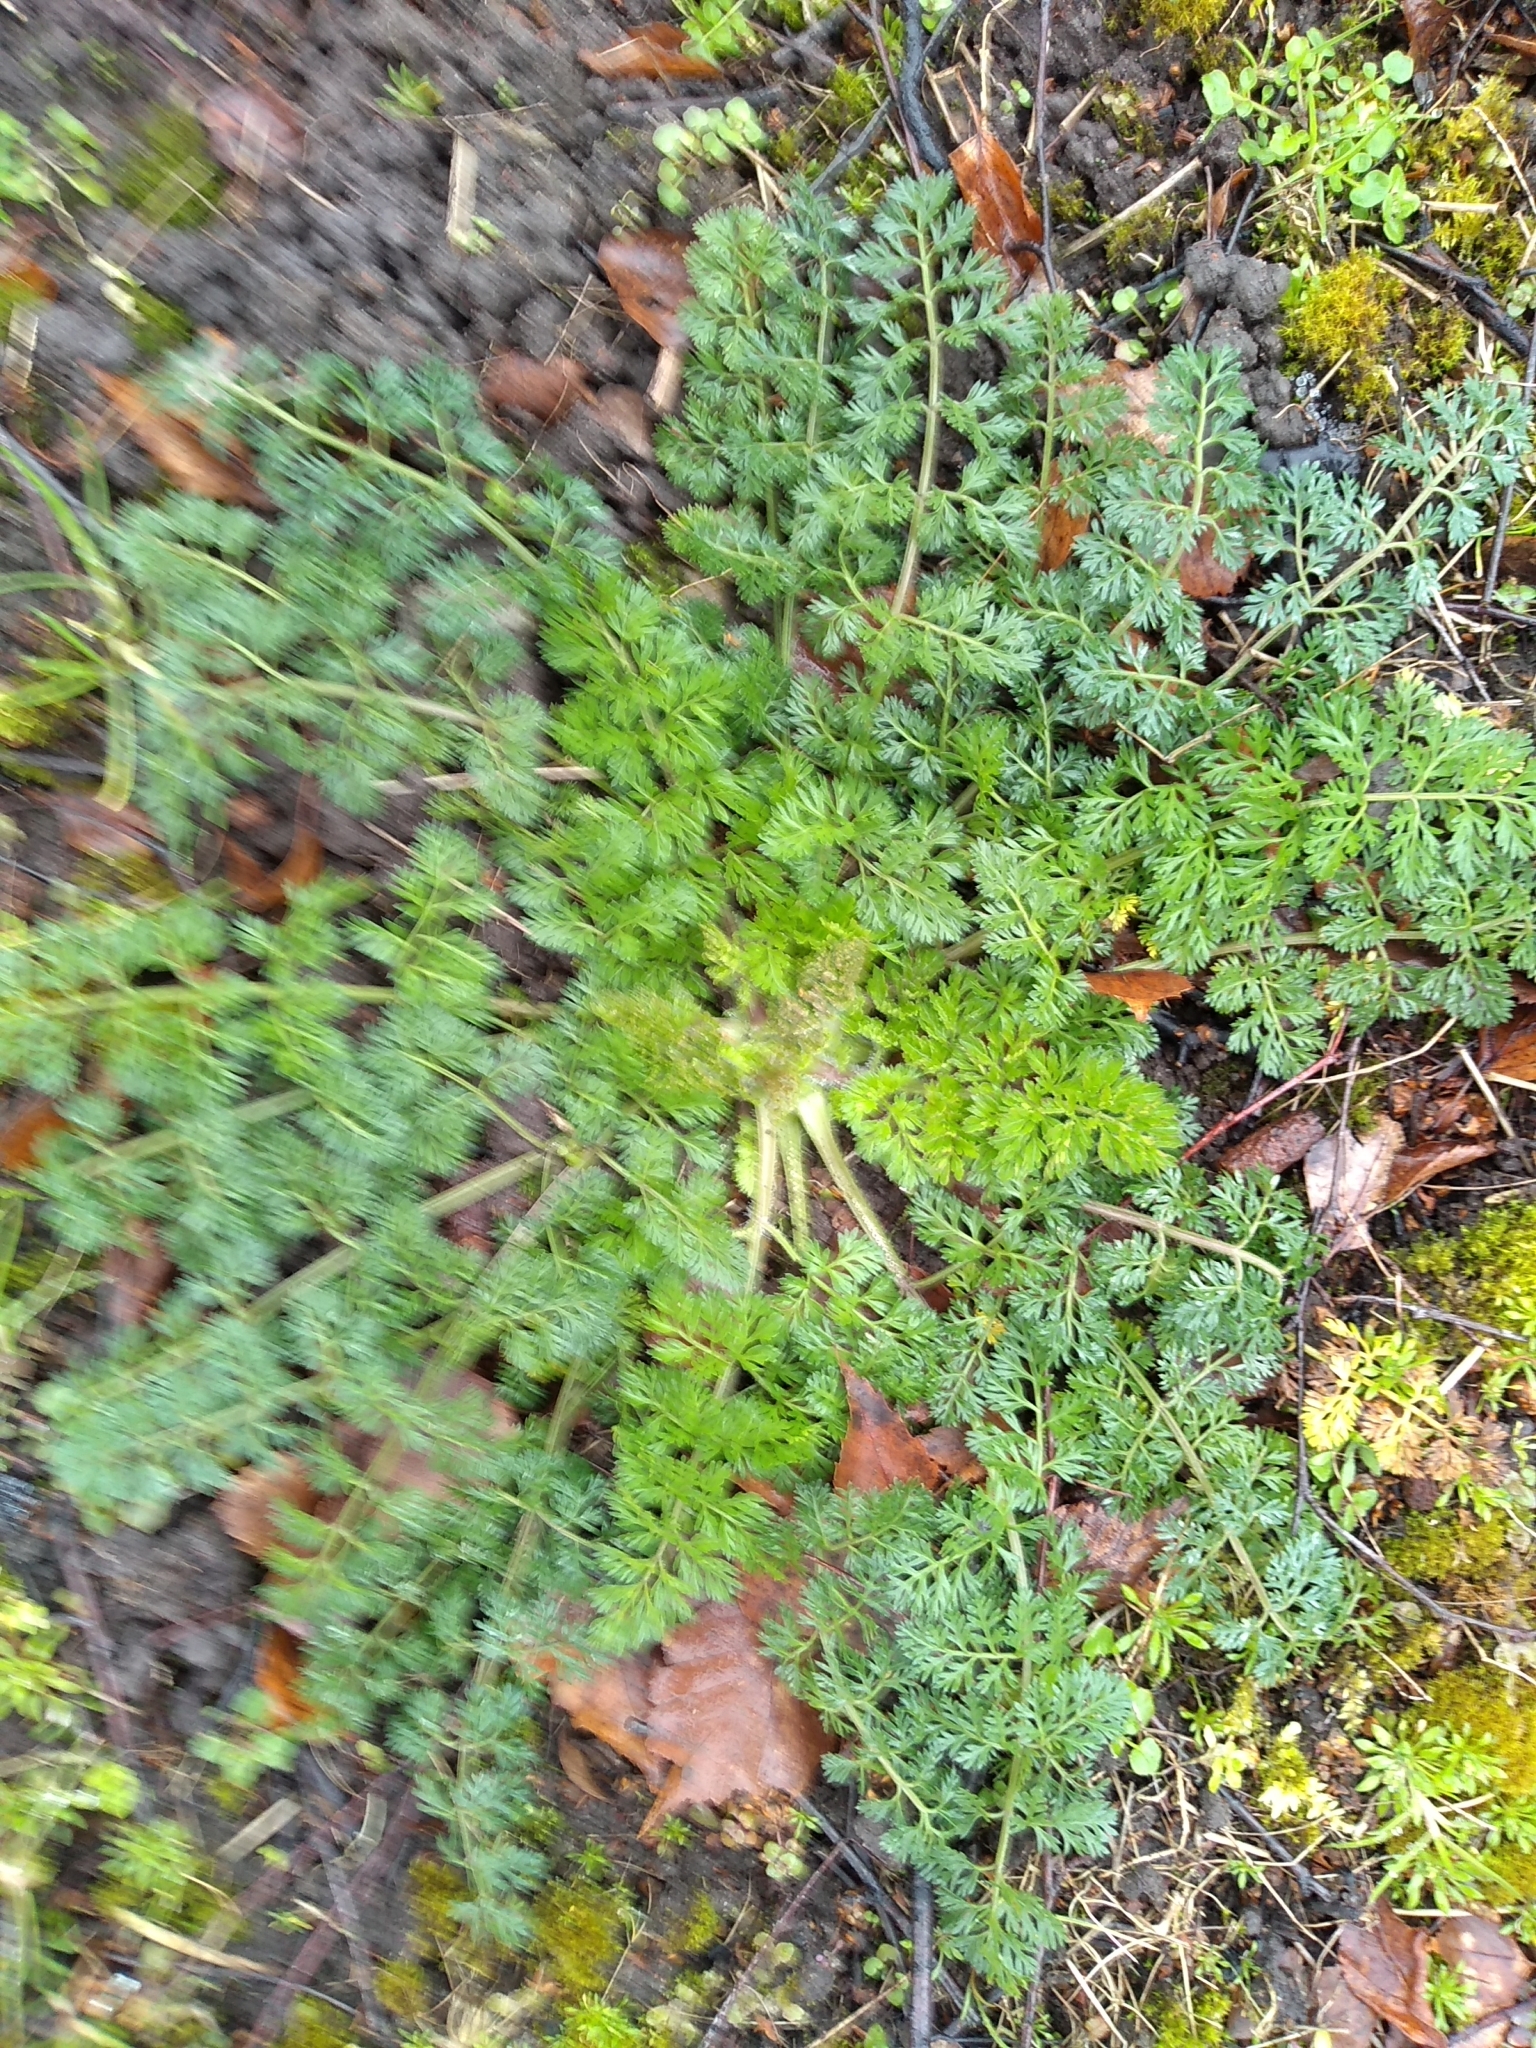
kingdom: Plantae
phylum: Tracheophyta
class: Magnoliopsida
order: Apiales
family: Apiaceae
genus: Daucus
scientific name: Daucus carota
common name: Wild carrot
